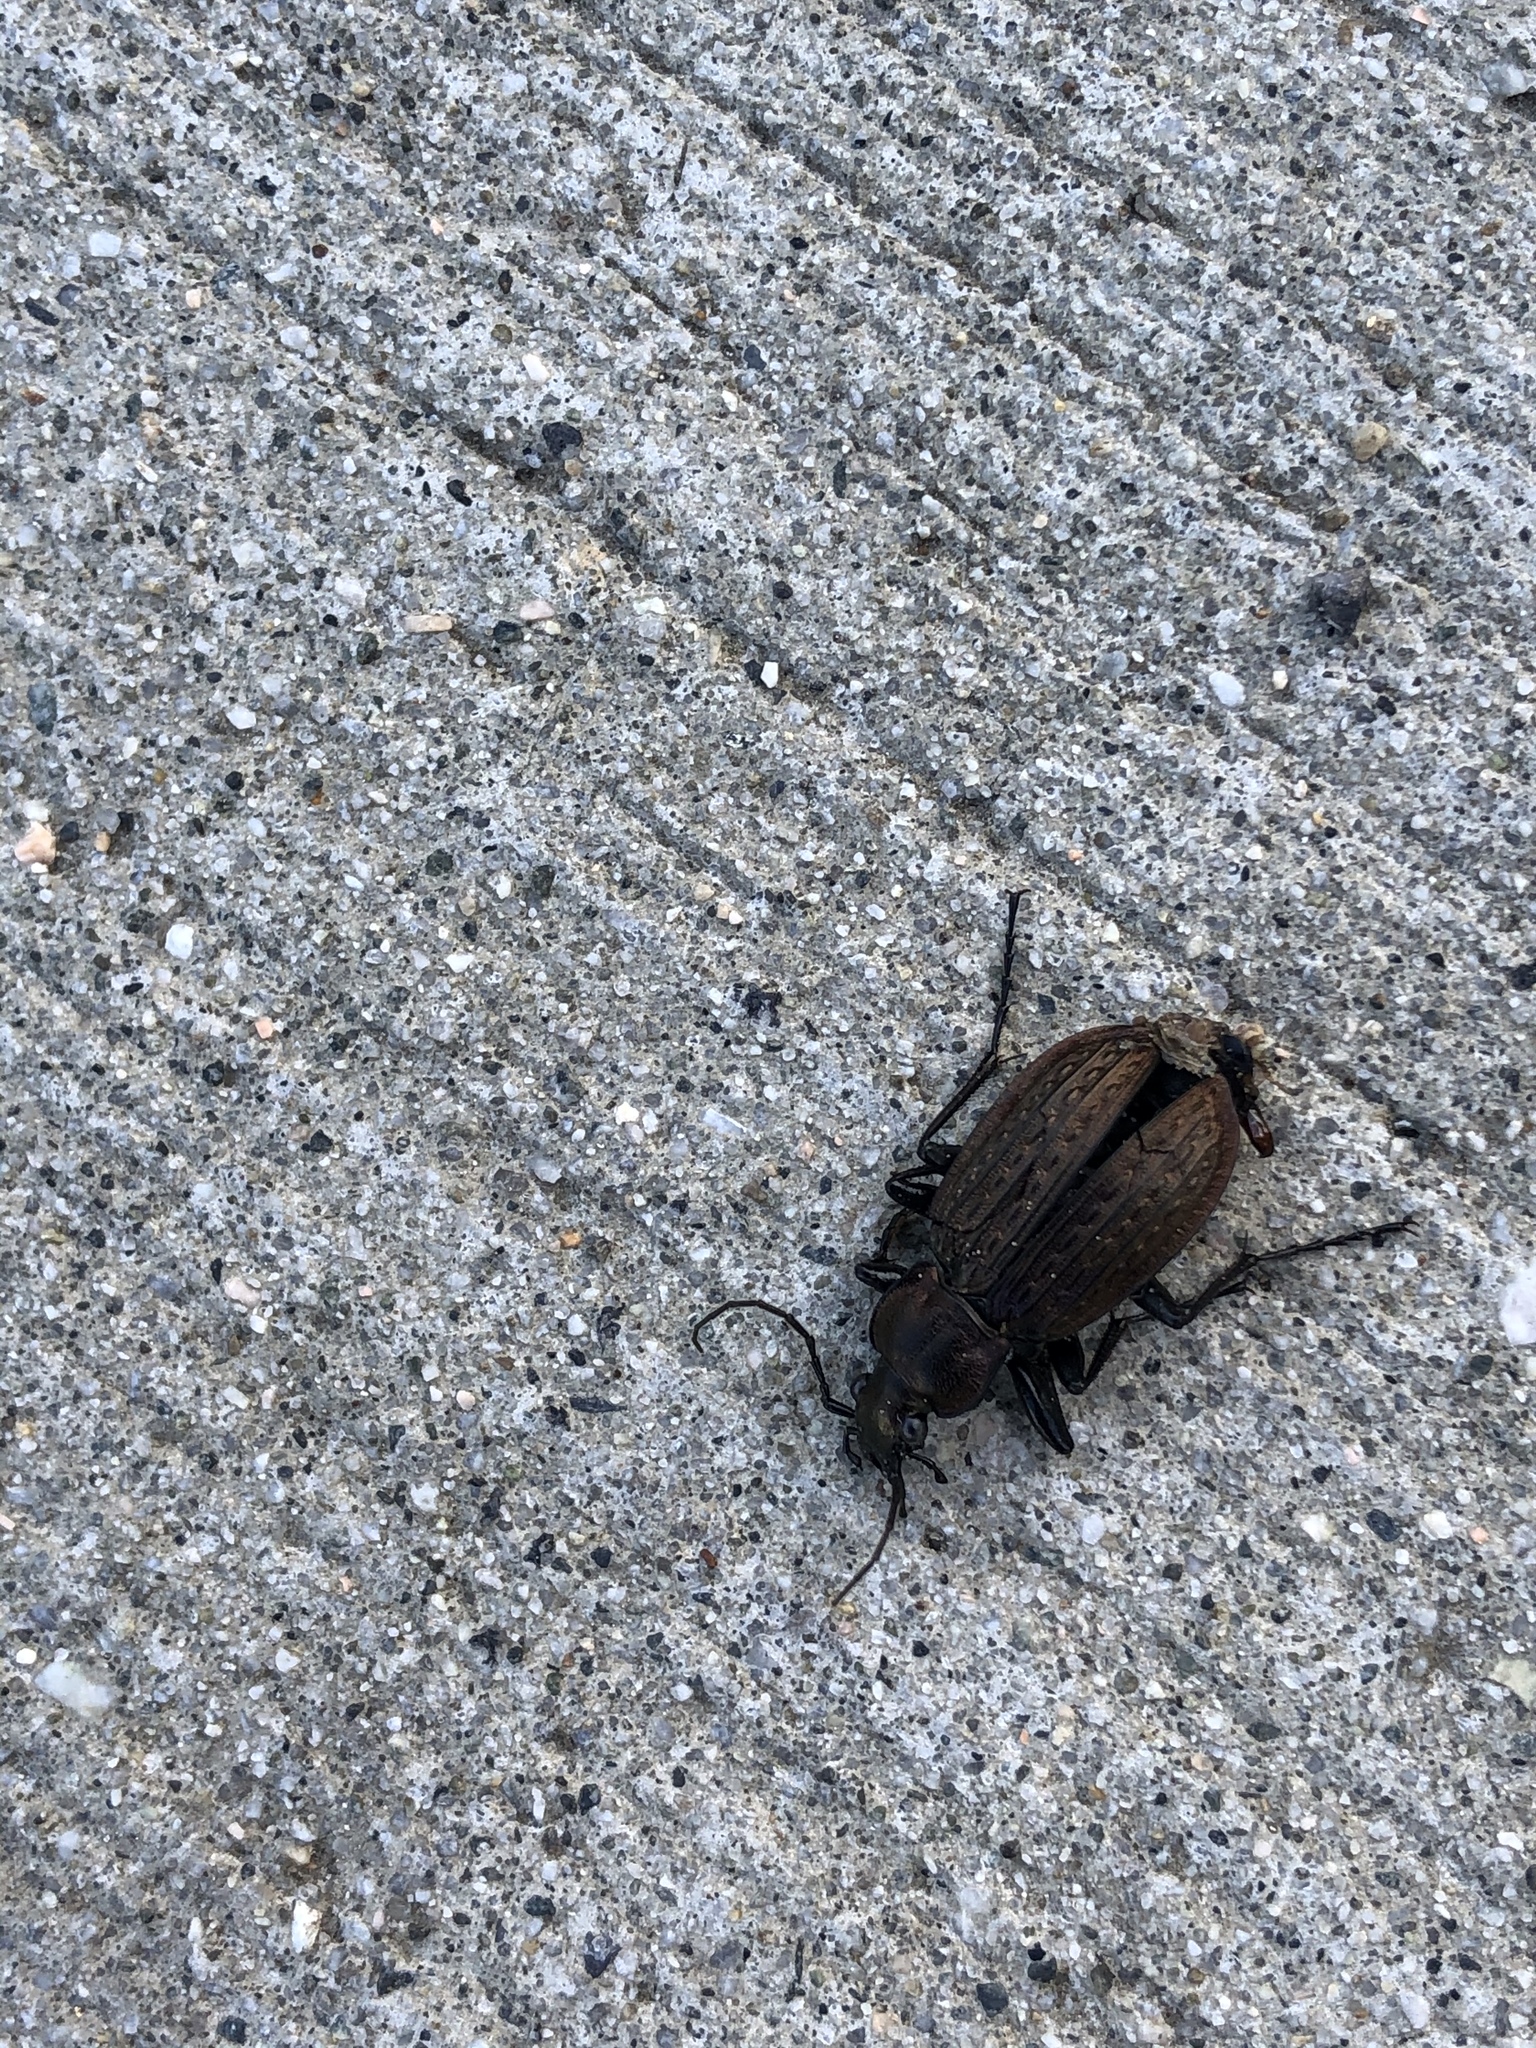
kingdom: Animalia
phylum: Arthropoda
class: Insecta
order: Coleoptera
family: Carabidae
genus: Carabus
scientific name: Carabus granulatus
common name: Granulate ground beetle
